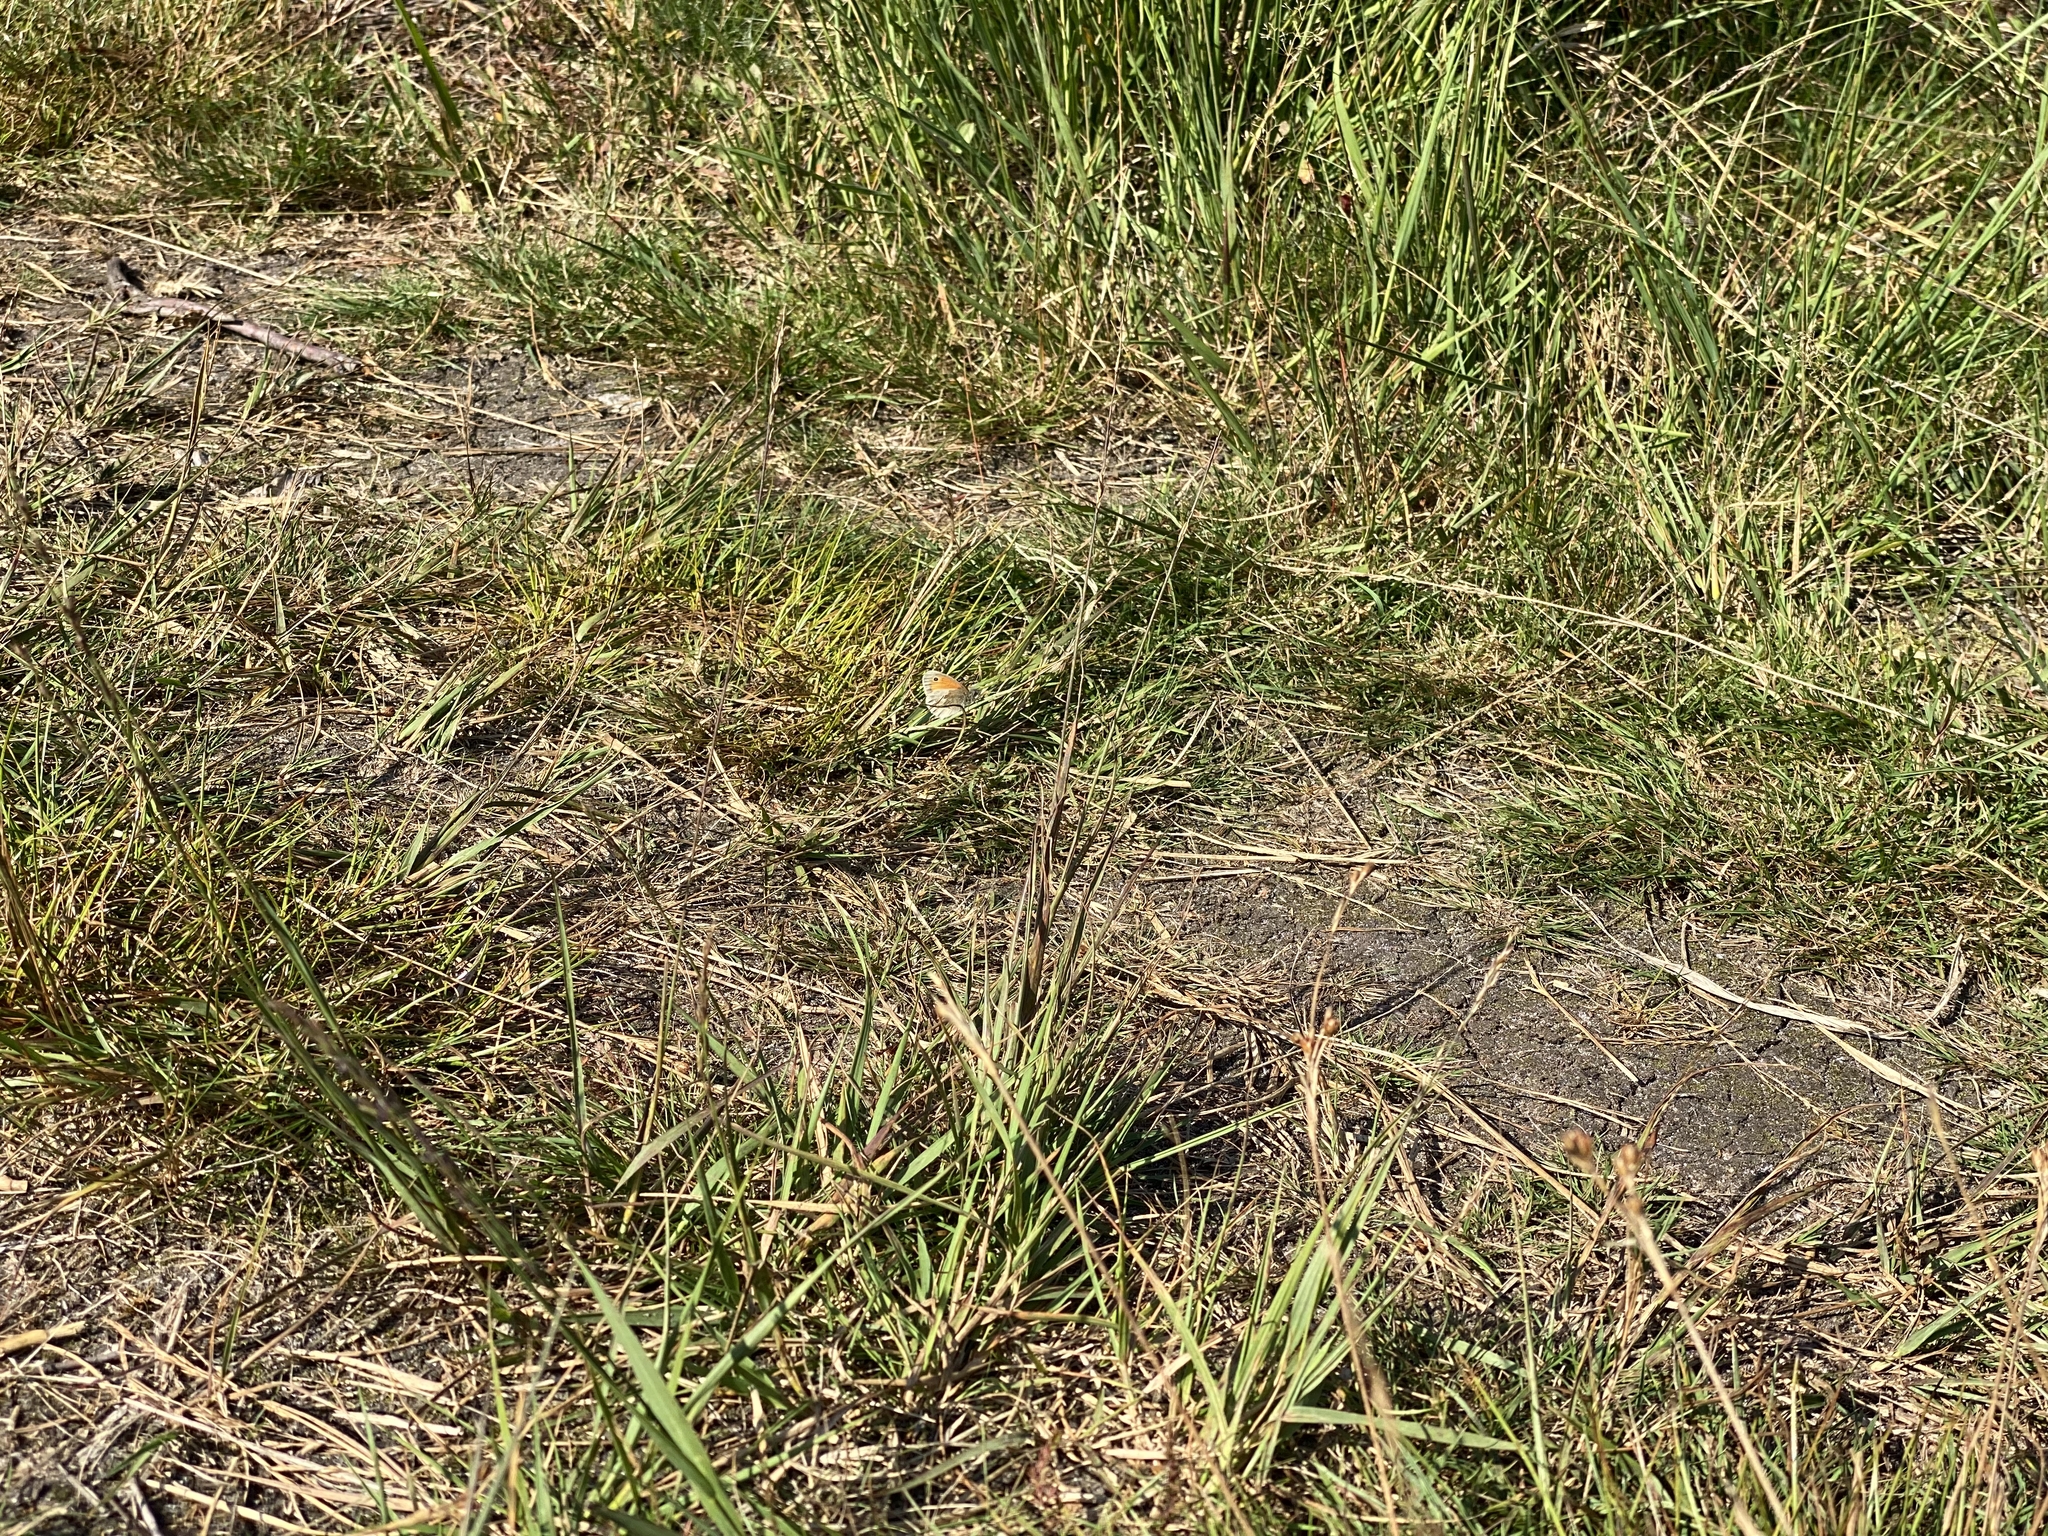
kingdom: Animalia
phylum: Arthropoda
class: Insecta
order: Lepidoptera
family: Nymphalidae
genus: Coenonympha
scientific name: Coenonympha pamphilus
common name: Small heath
